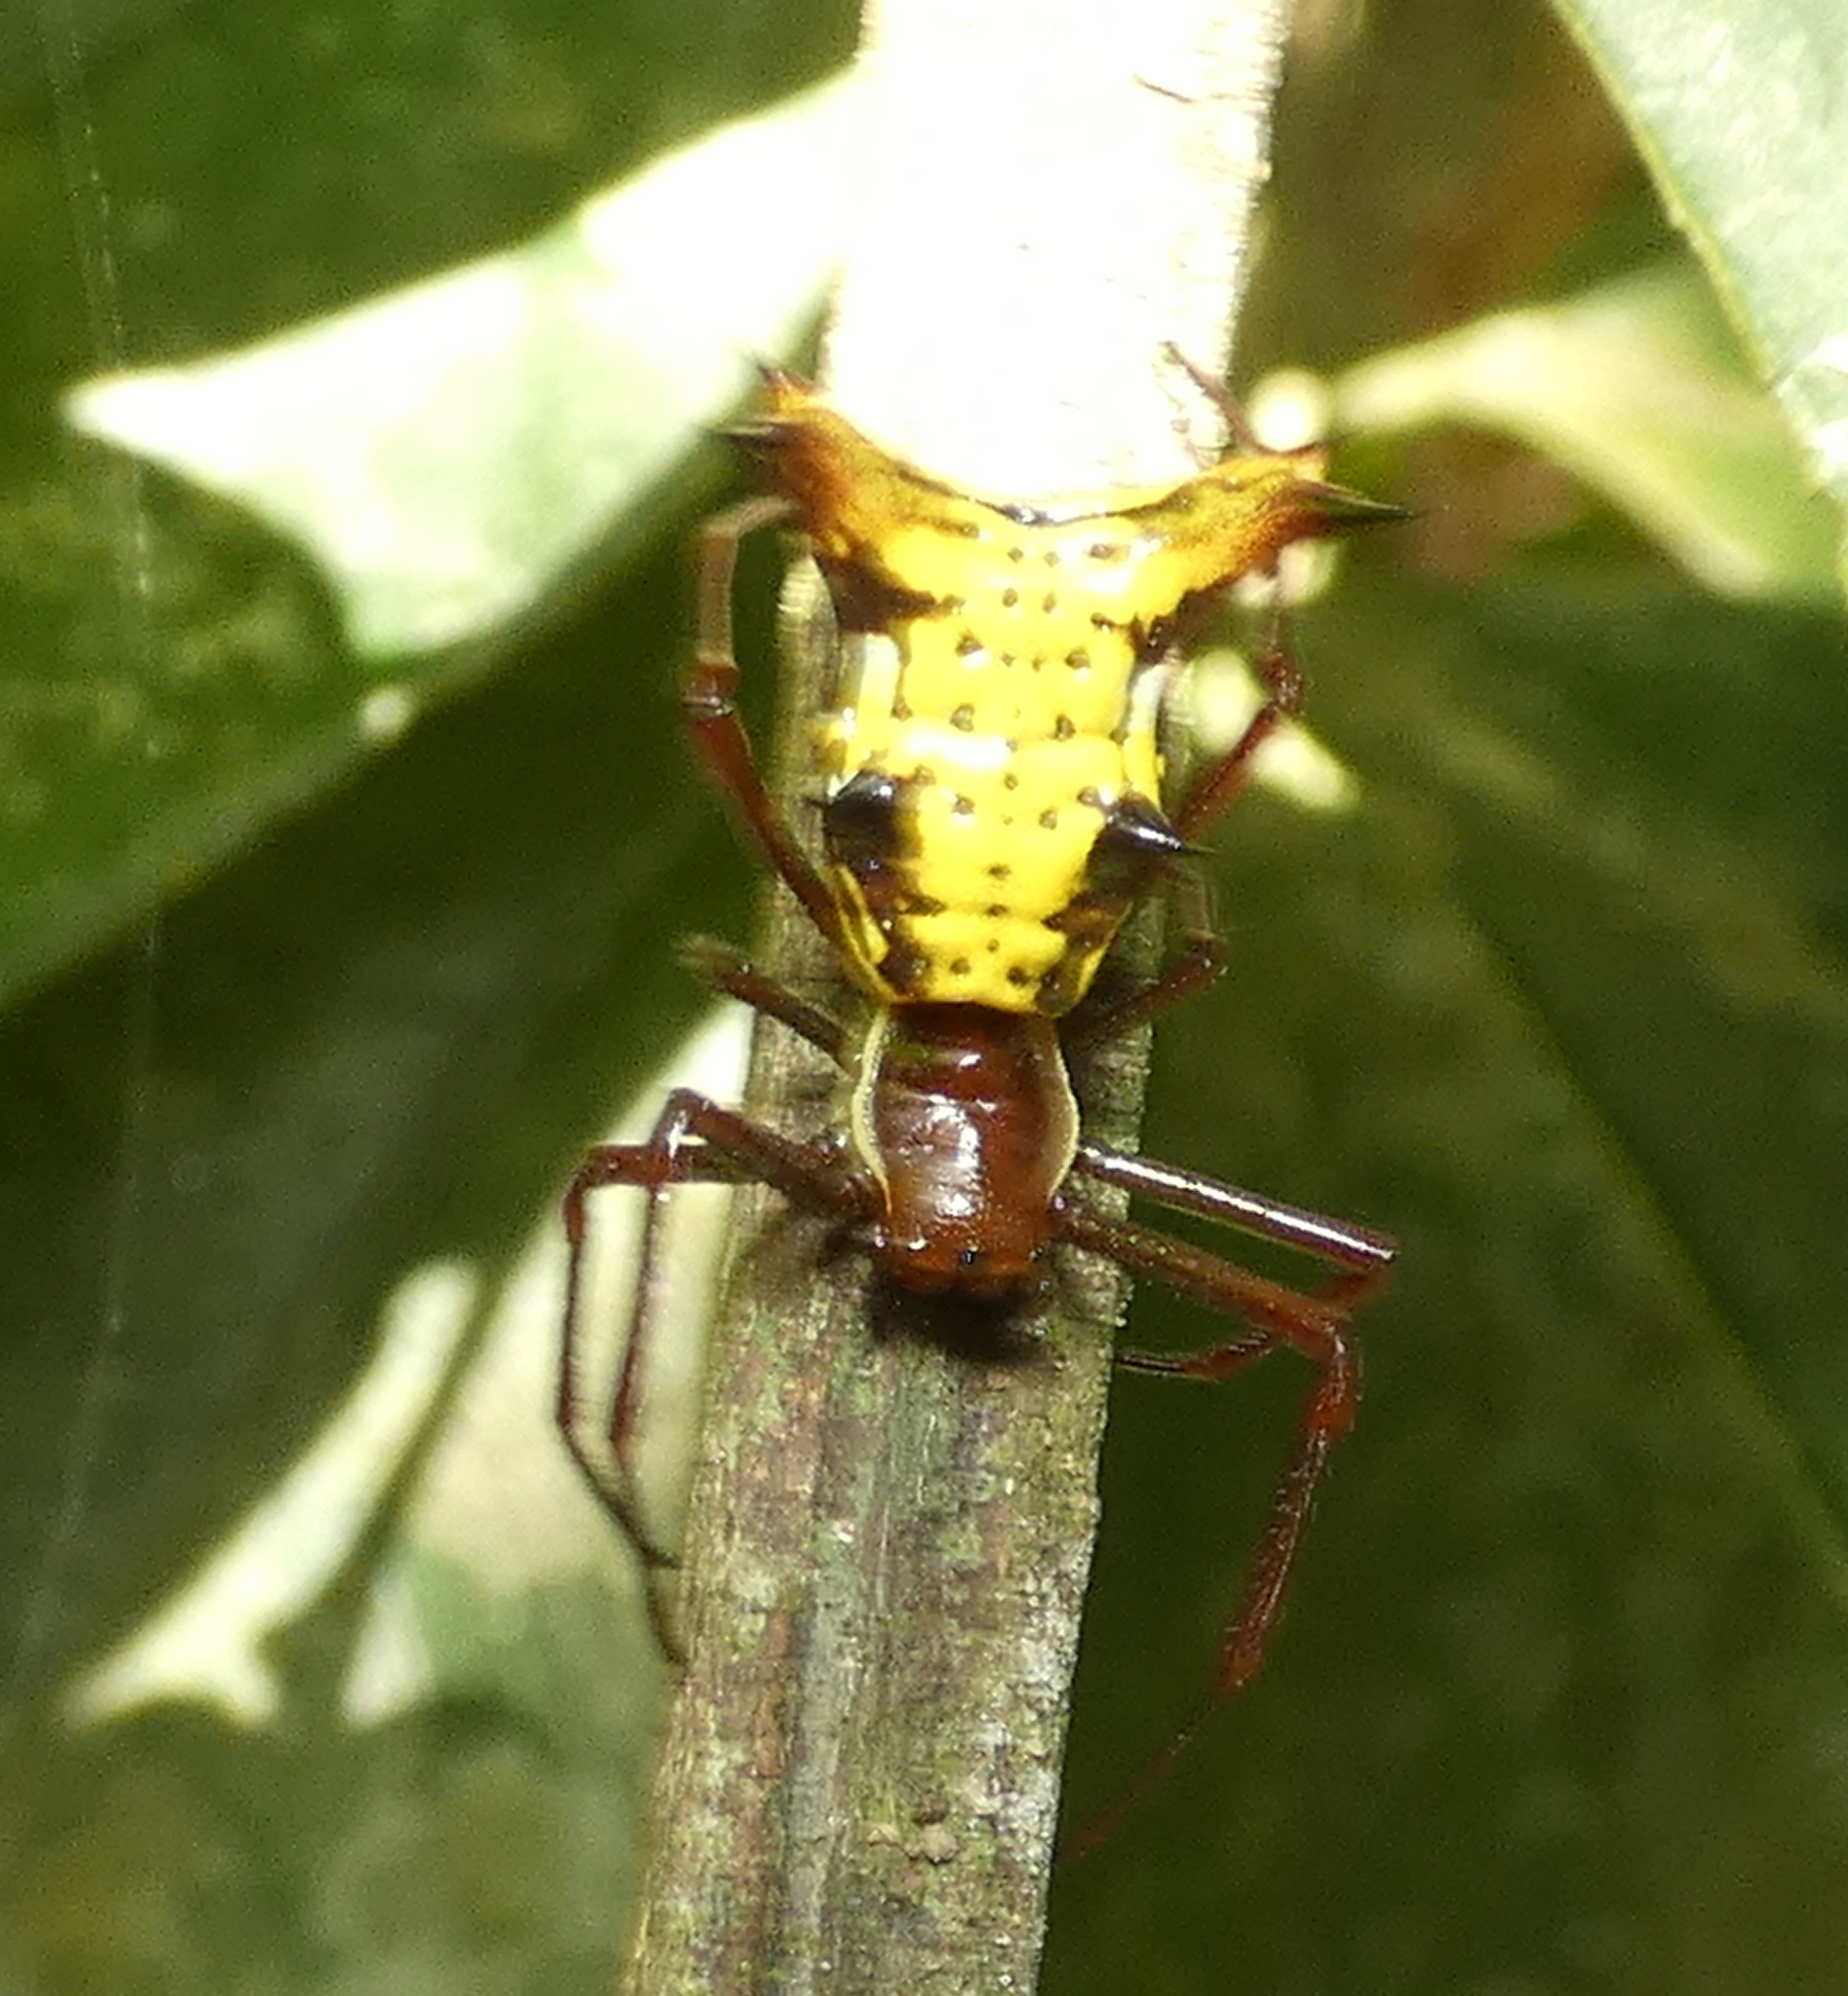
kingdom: Animalia
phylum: Arthropoda
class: Arachnida
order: Araneae
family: Araneidae
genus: Micrathena
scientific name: Micrathena fissispina
